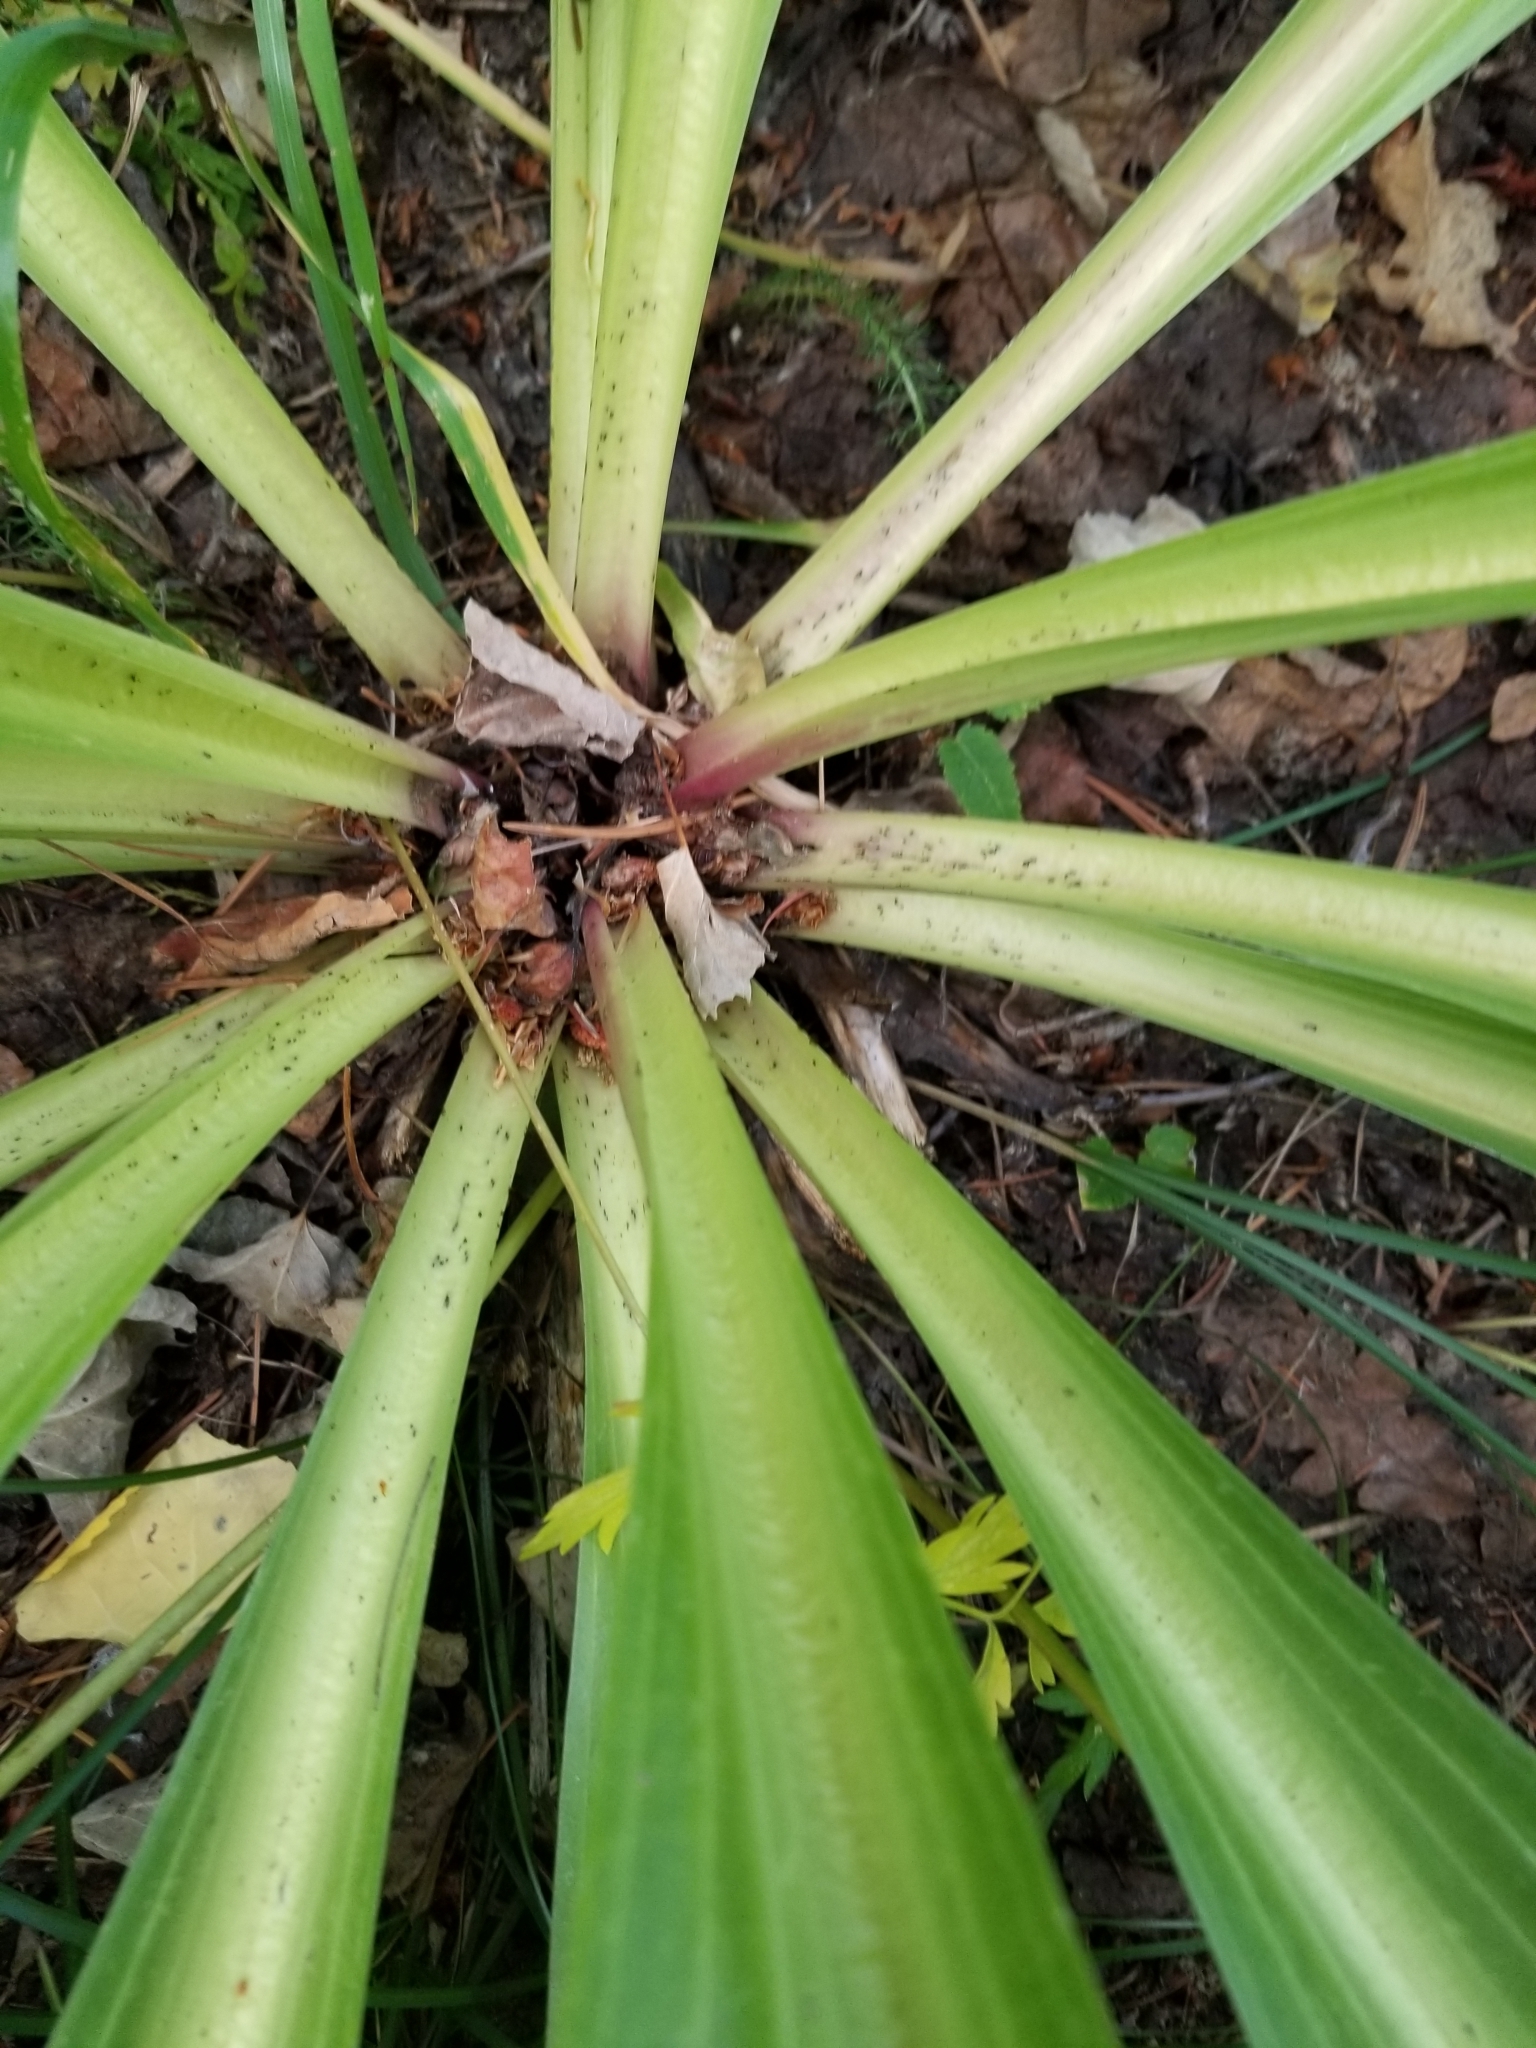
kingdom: Plantae
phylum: Tracheophyta
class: Magnoliopsida
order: Gentianales
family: Gentianaceae
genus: Frasera
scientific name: Frasera speciosa
